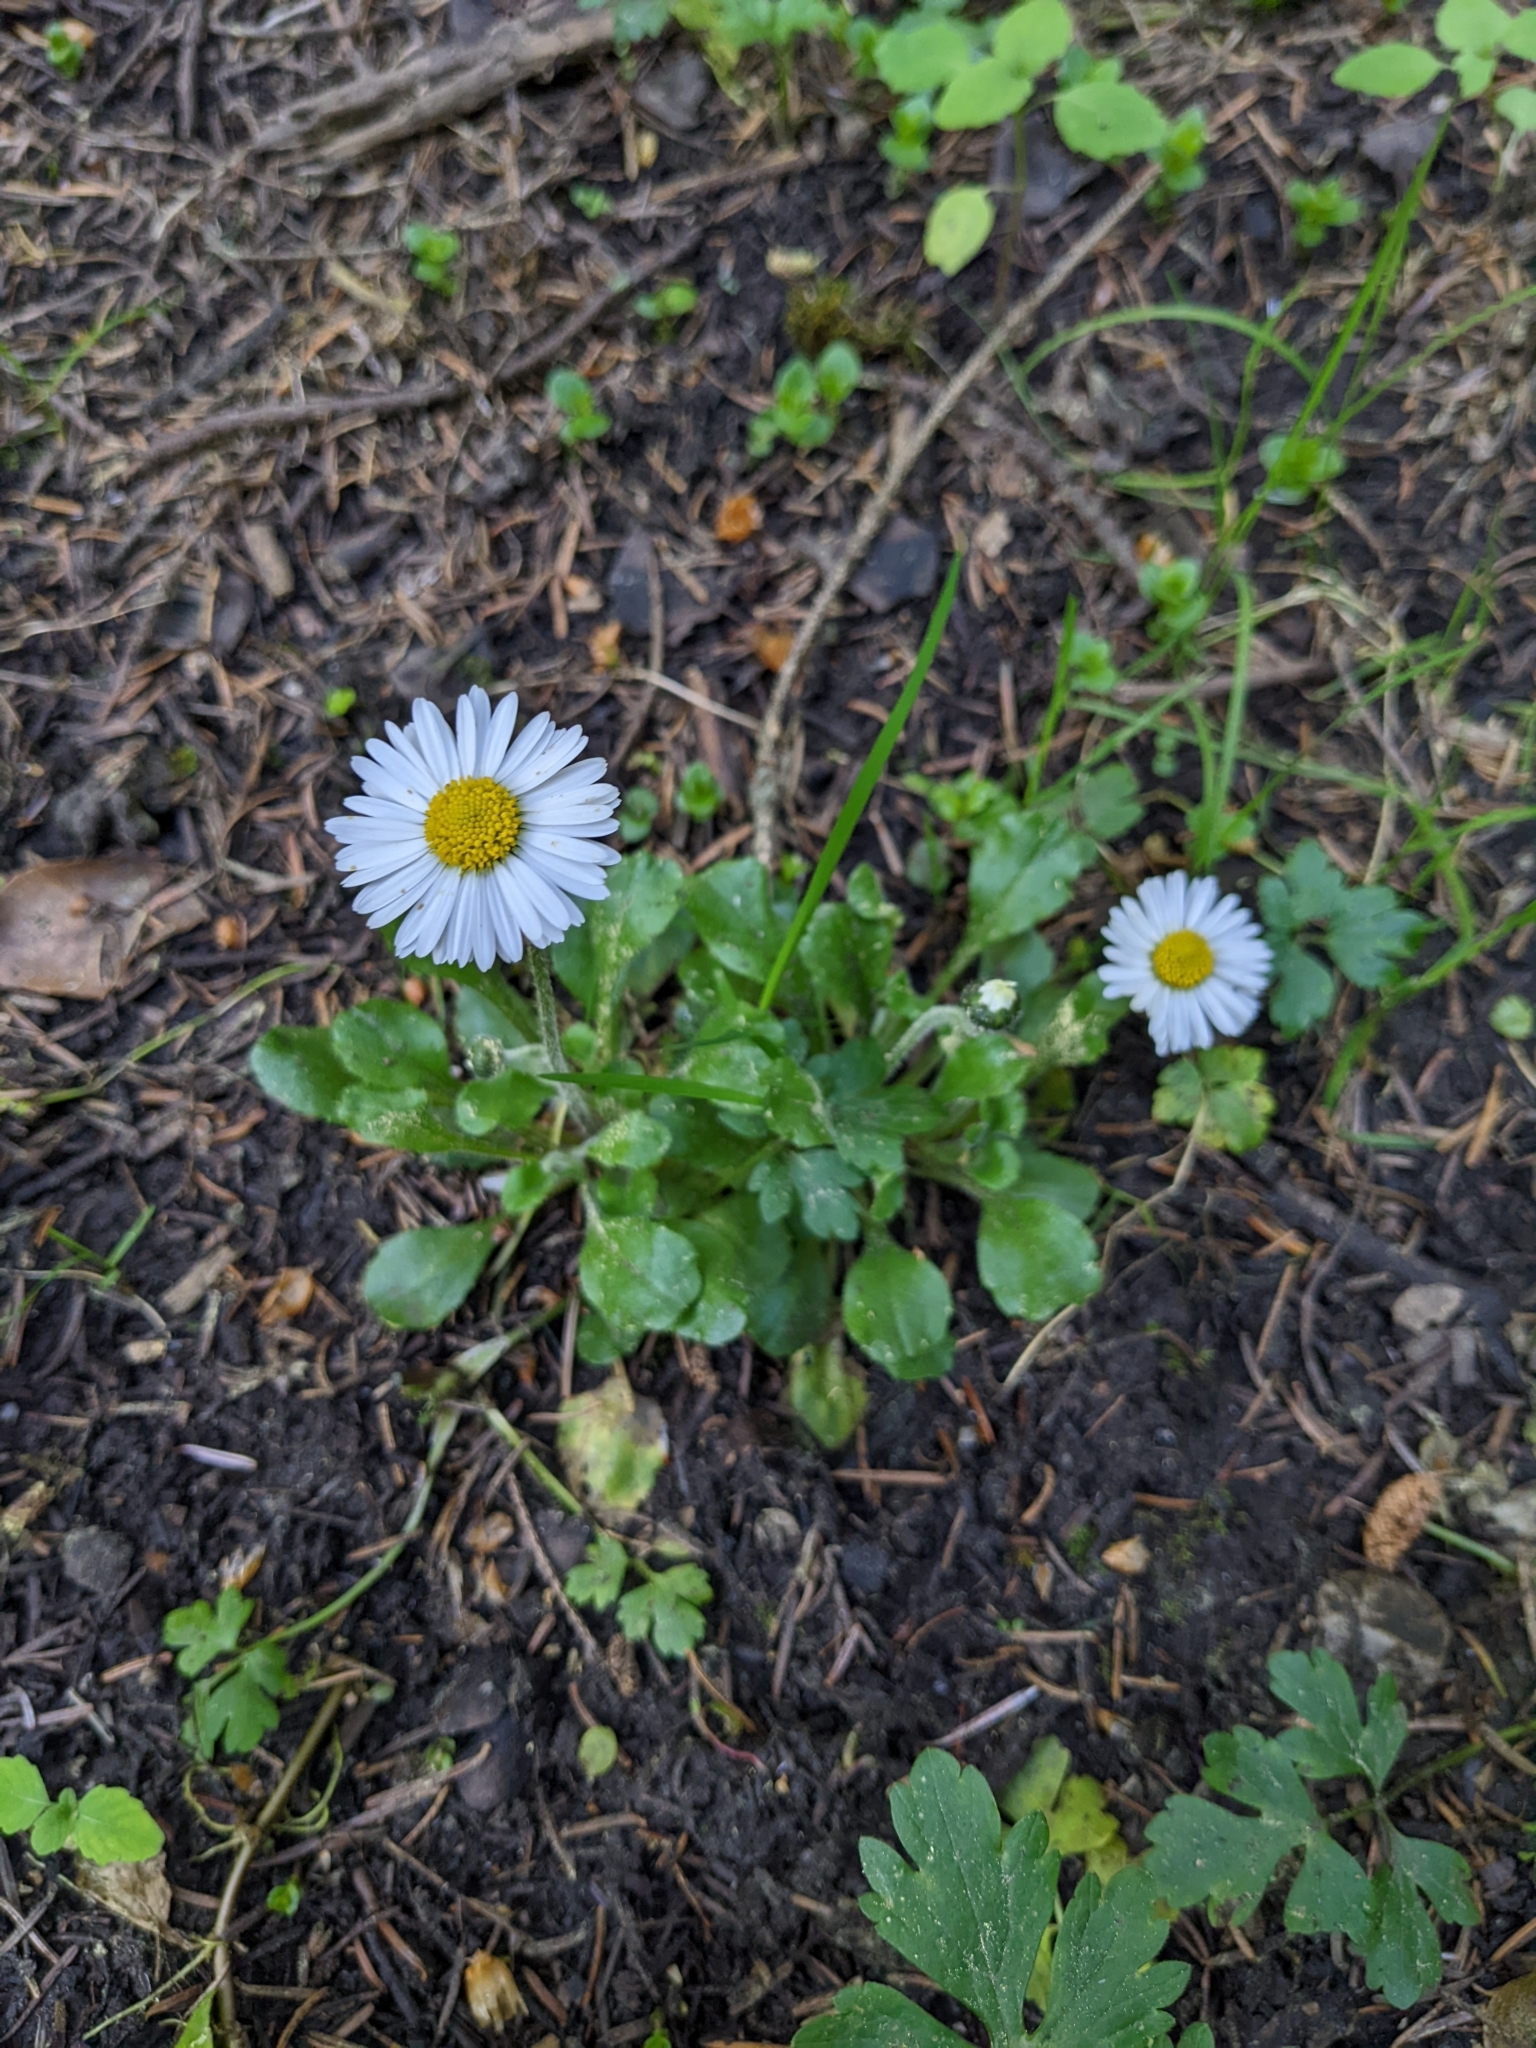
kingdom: Plantae
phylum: Tracheophyta
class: Magnoliopsida
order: Asterales
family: Asteraceae
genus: Bellis
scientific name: Bellis perennis
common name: Lawndaisy
